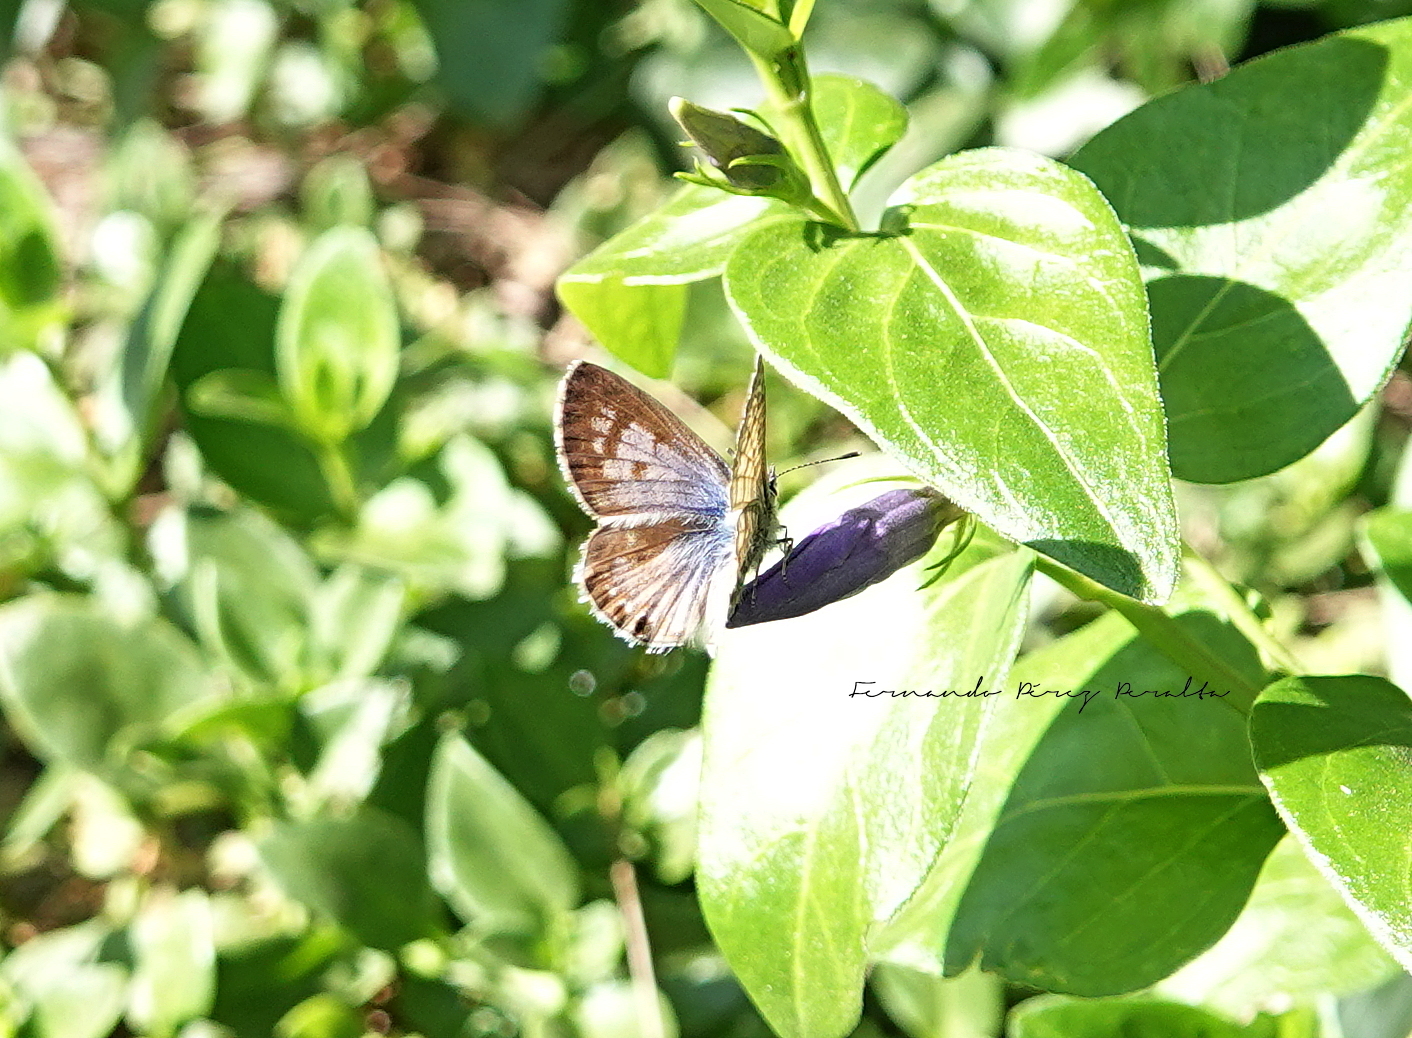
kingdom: Animalia
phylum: Arthropoda
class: Insecta
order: Lepidoptera
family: Lycaenidae
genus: Leptotes
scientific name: Leptotes theonus
